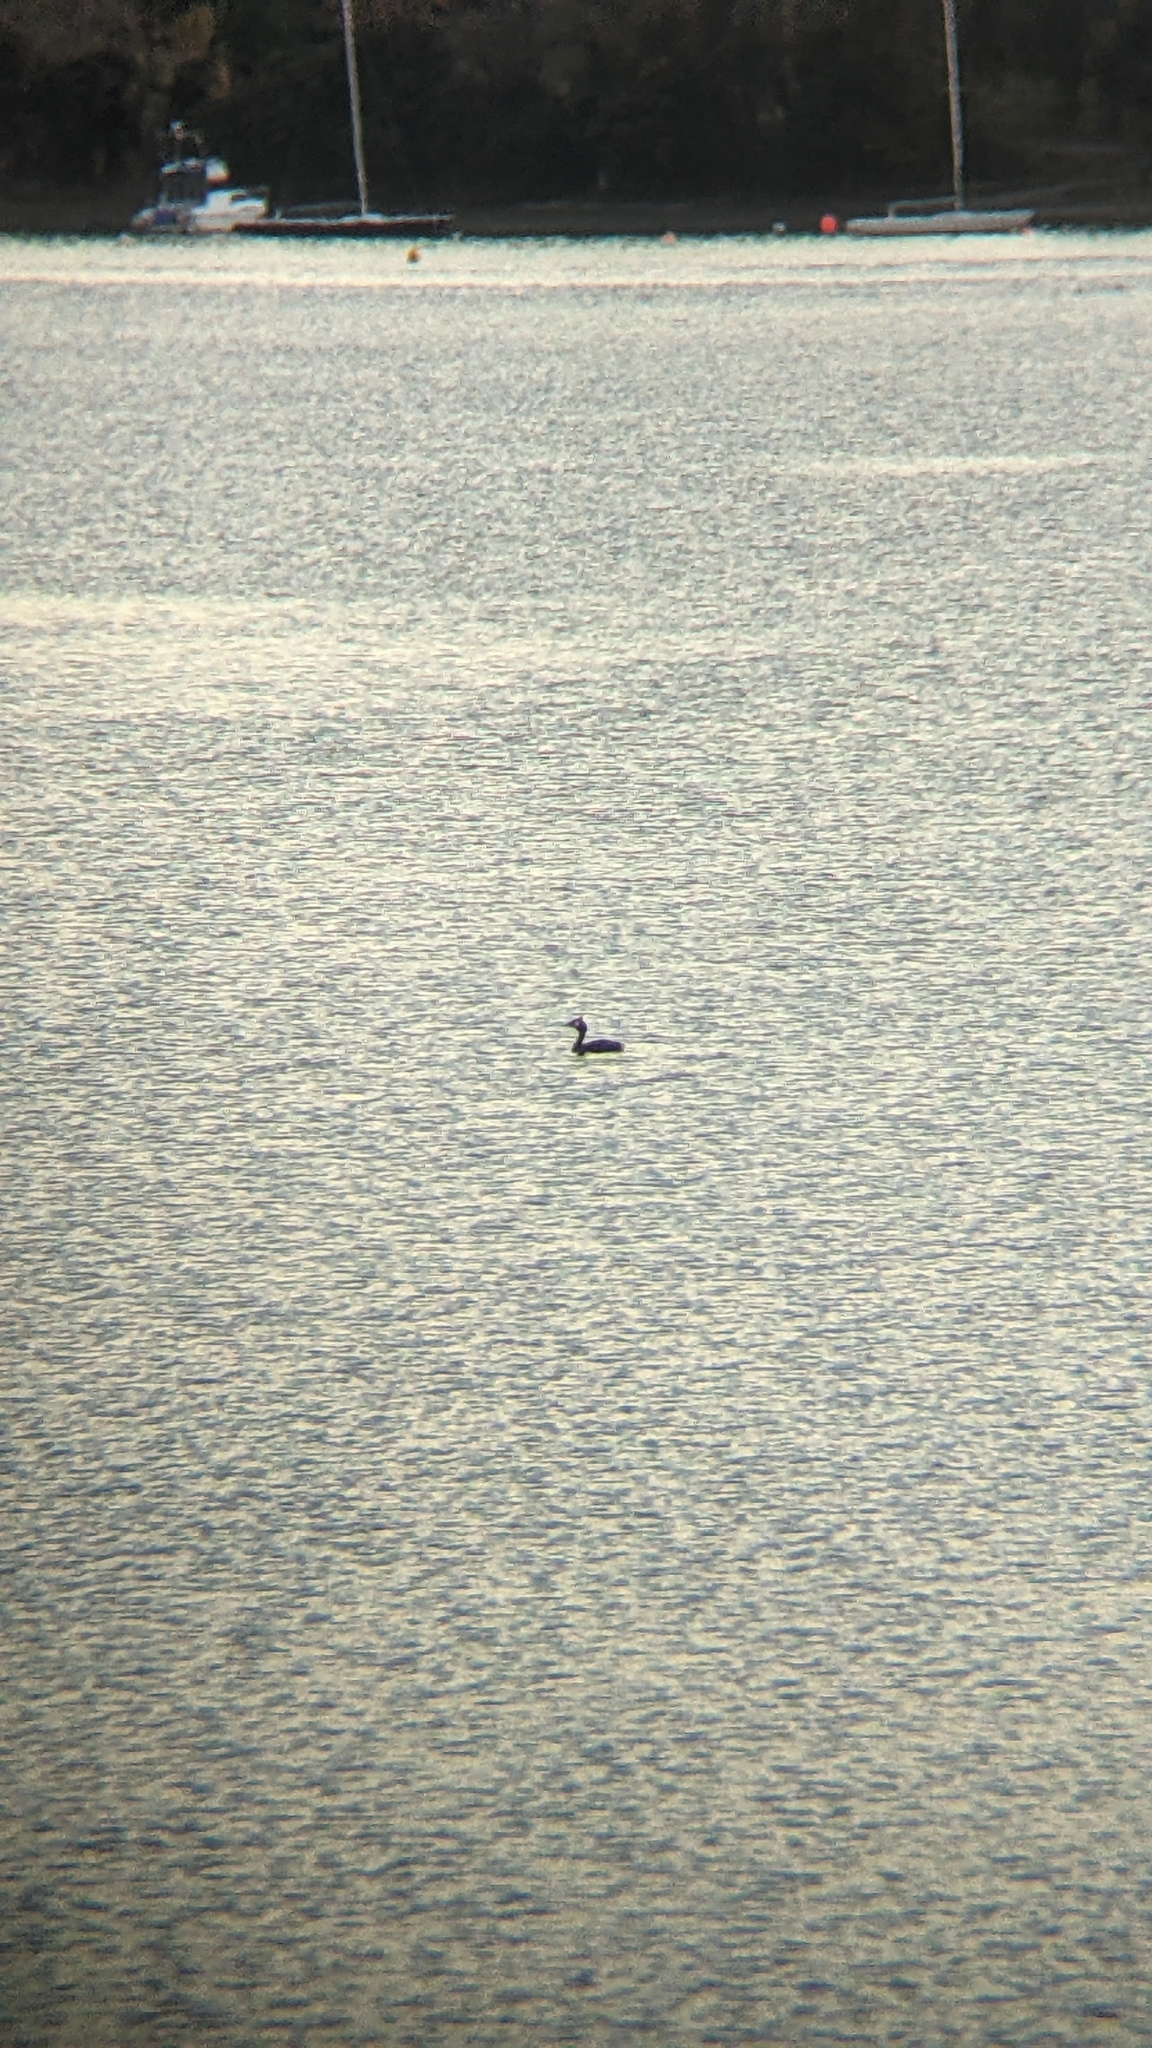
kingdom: Animalia
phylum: Chordata
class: Aves
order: Podicipediformes
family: Podicipedidae
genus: Podiceps
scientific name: Podiceps cristatus
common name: Great crested grebe
